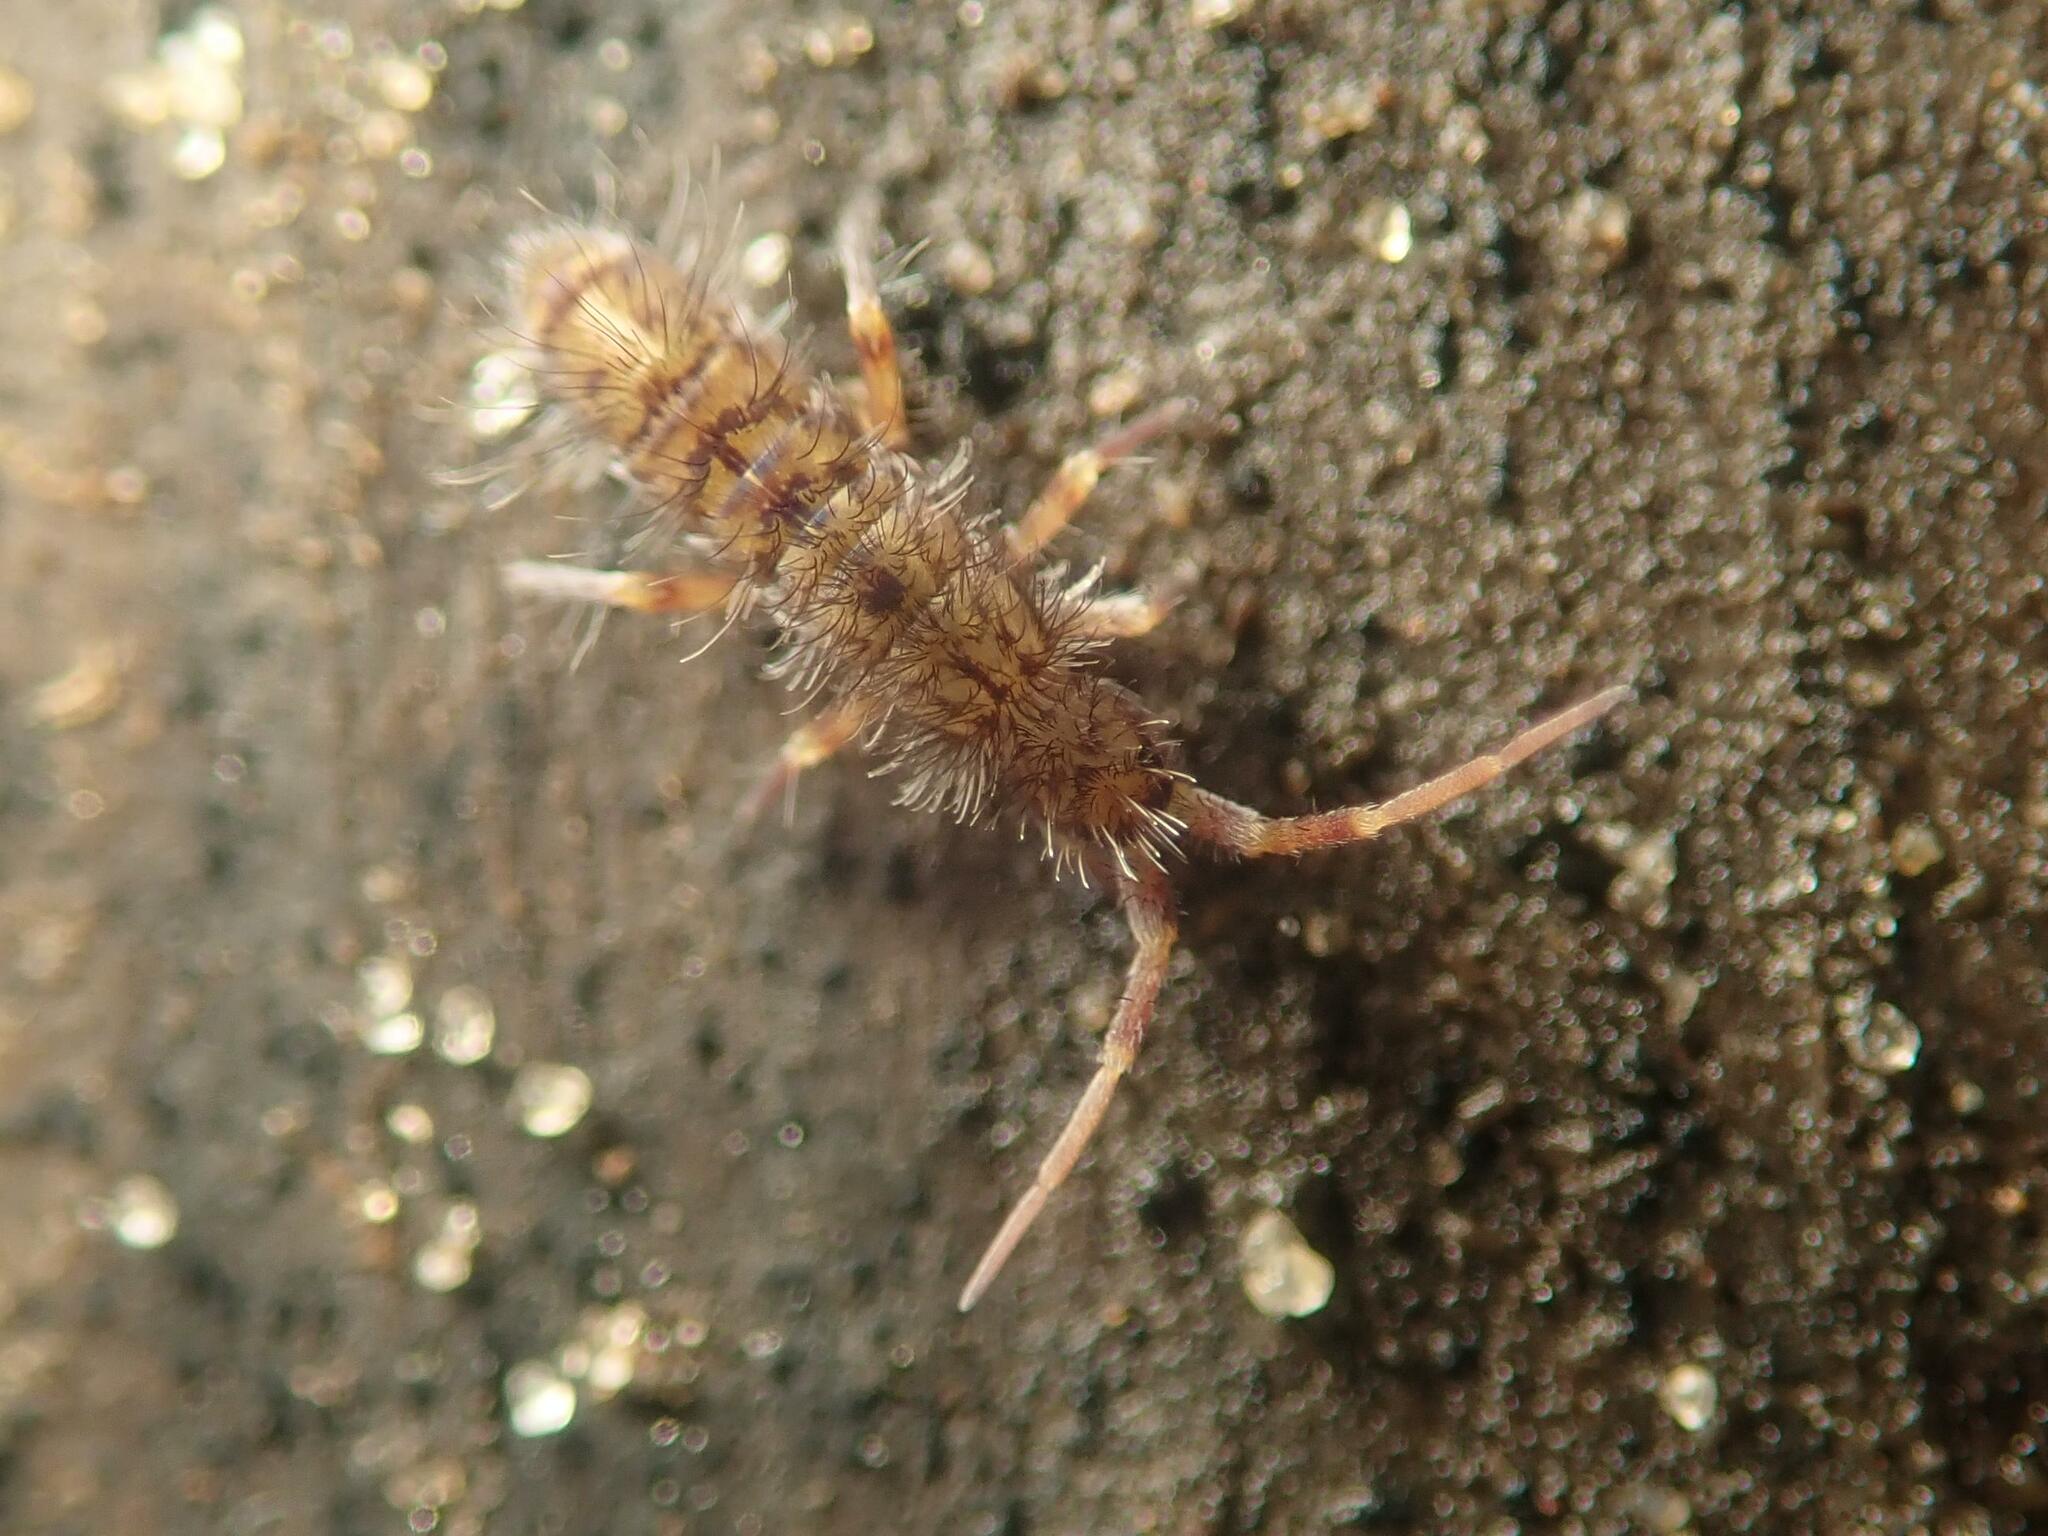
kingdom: Animalia
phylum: Arthropoda
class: Collembola
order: Entomobryomorpha
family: Orchesellidae
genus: Orchesella
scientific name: Orchesella villosa
